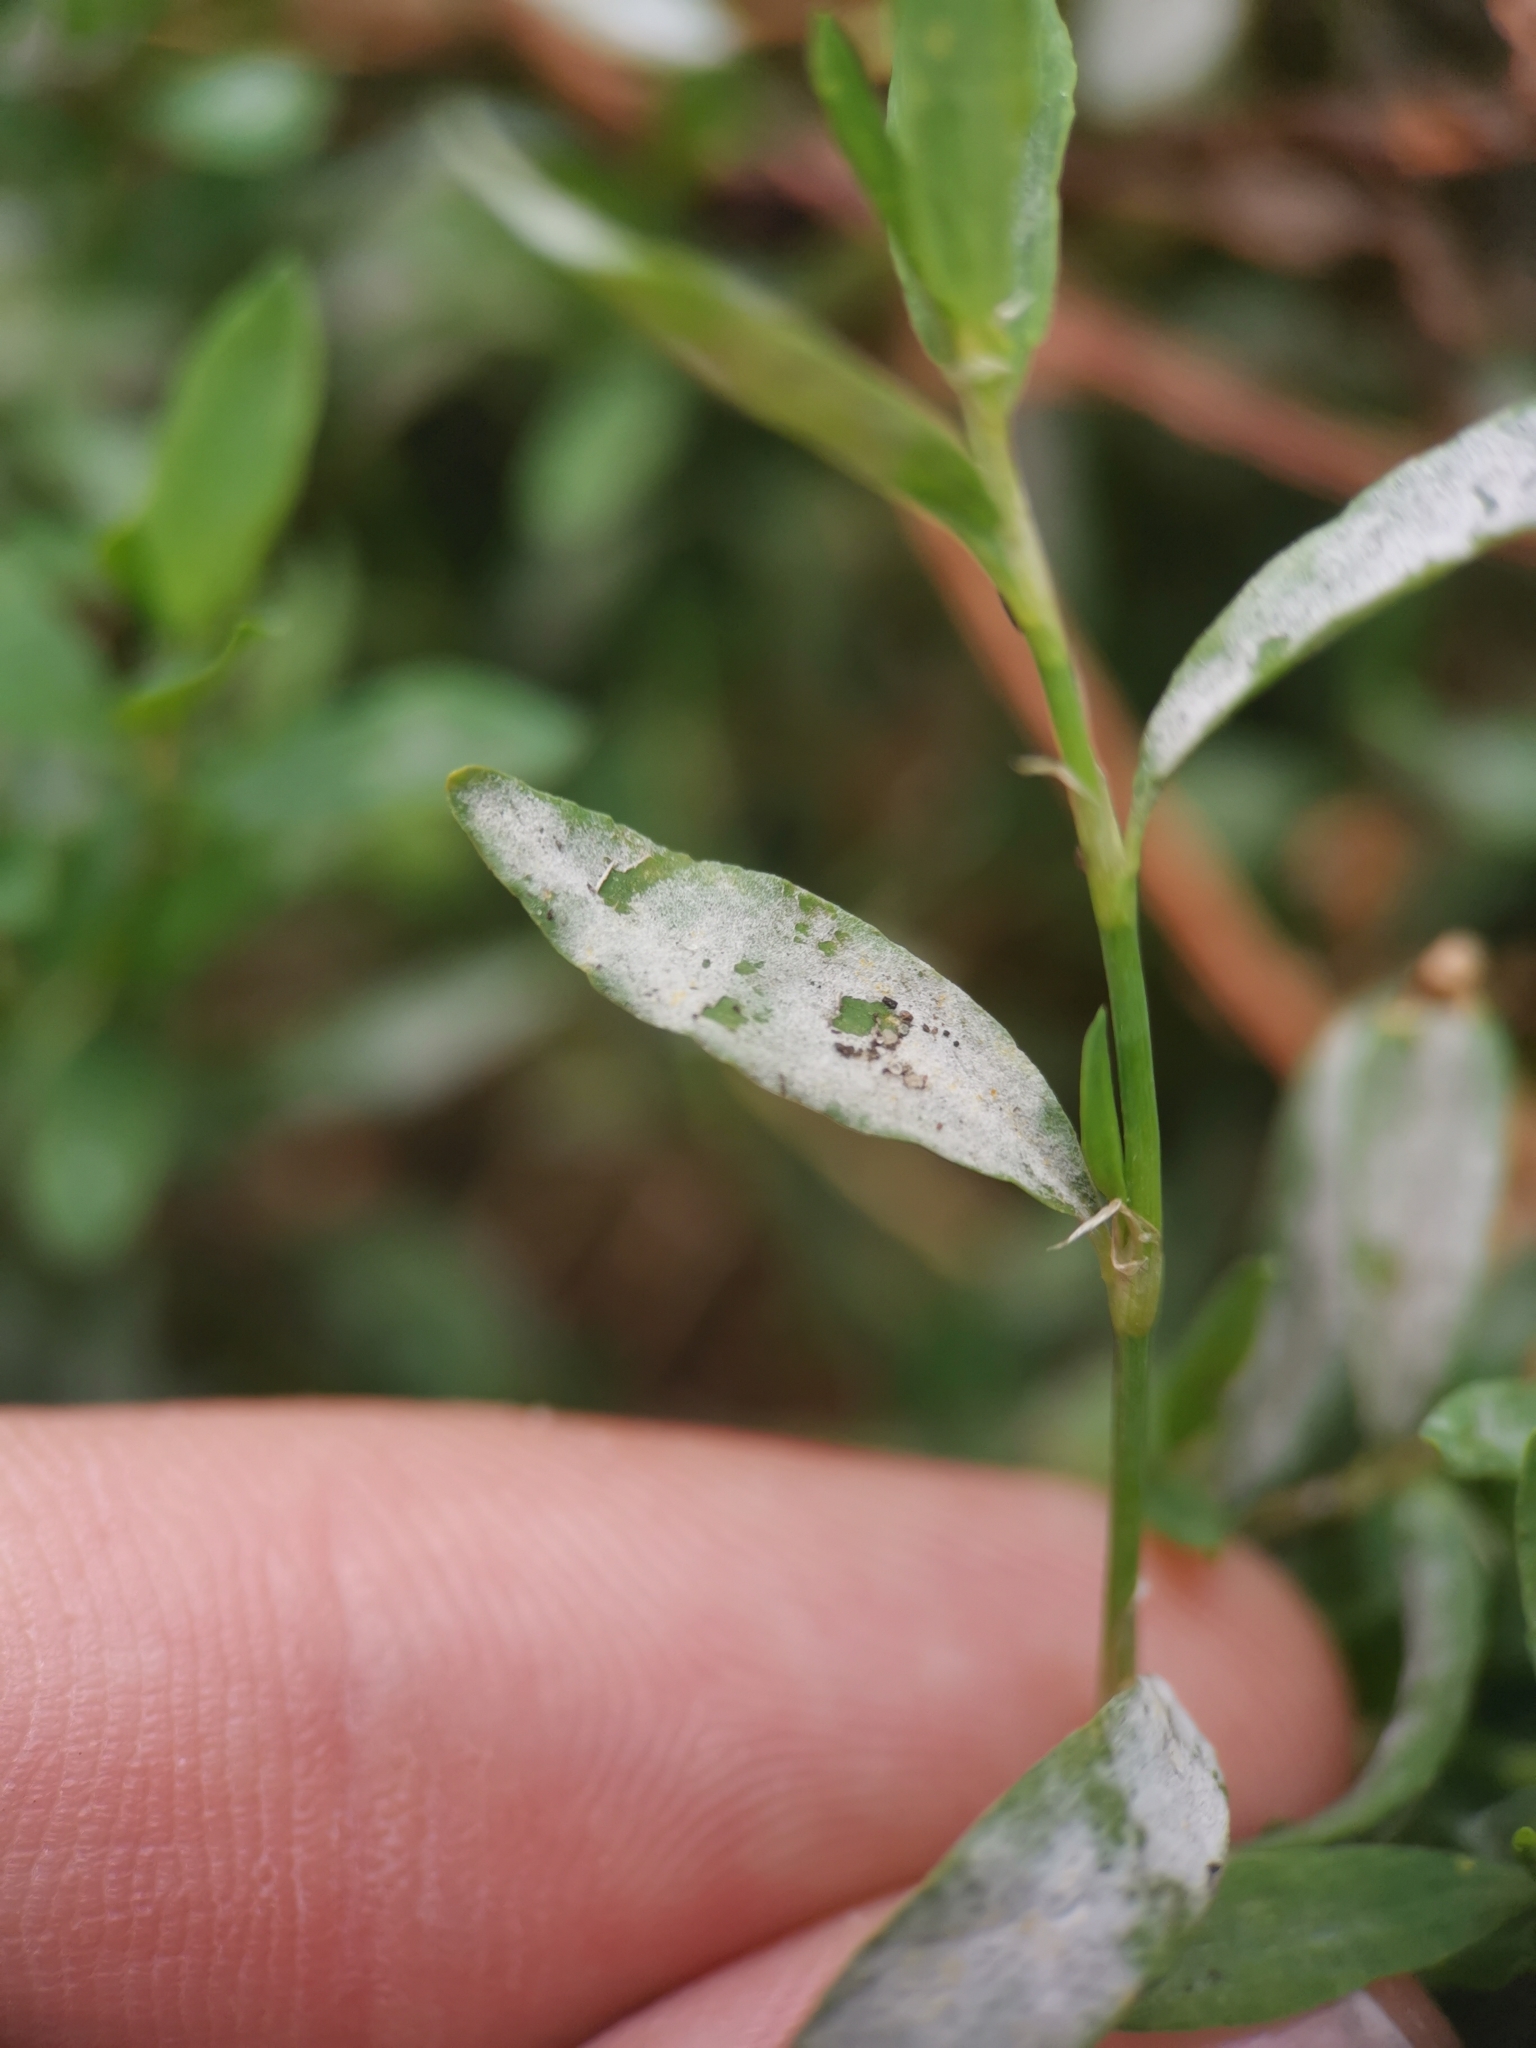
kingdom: Fungi
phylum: Ascomycota
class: Leotiomycetes
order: Helotiales
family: Erysiphaceae
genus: Erysiphe
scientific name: Erysiphe polygoni
